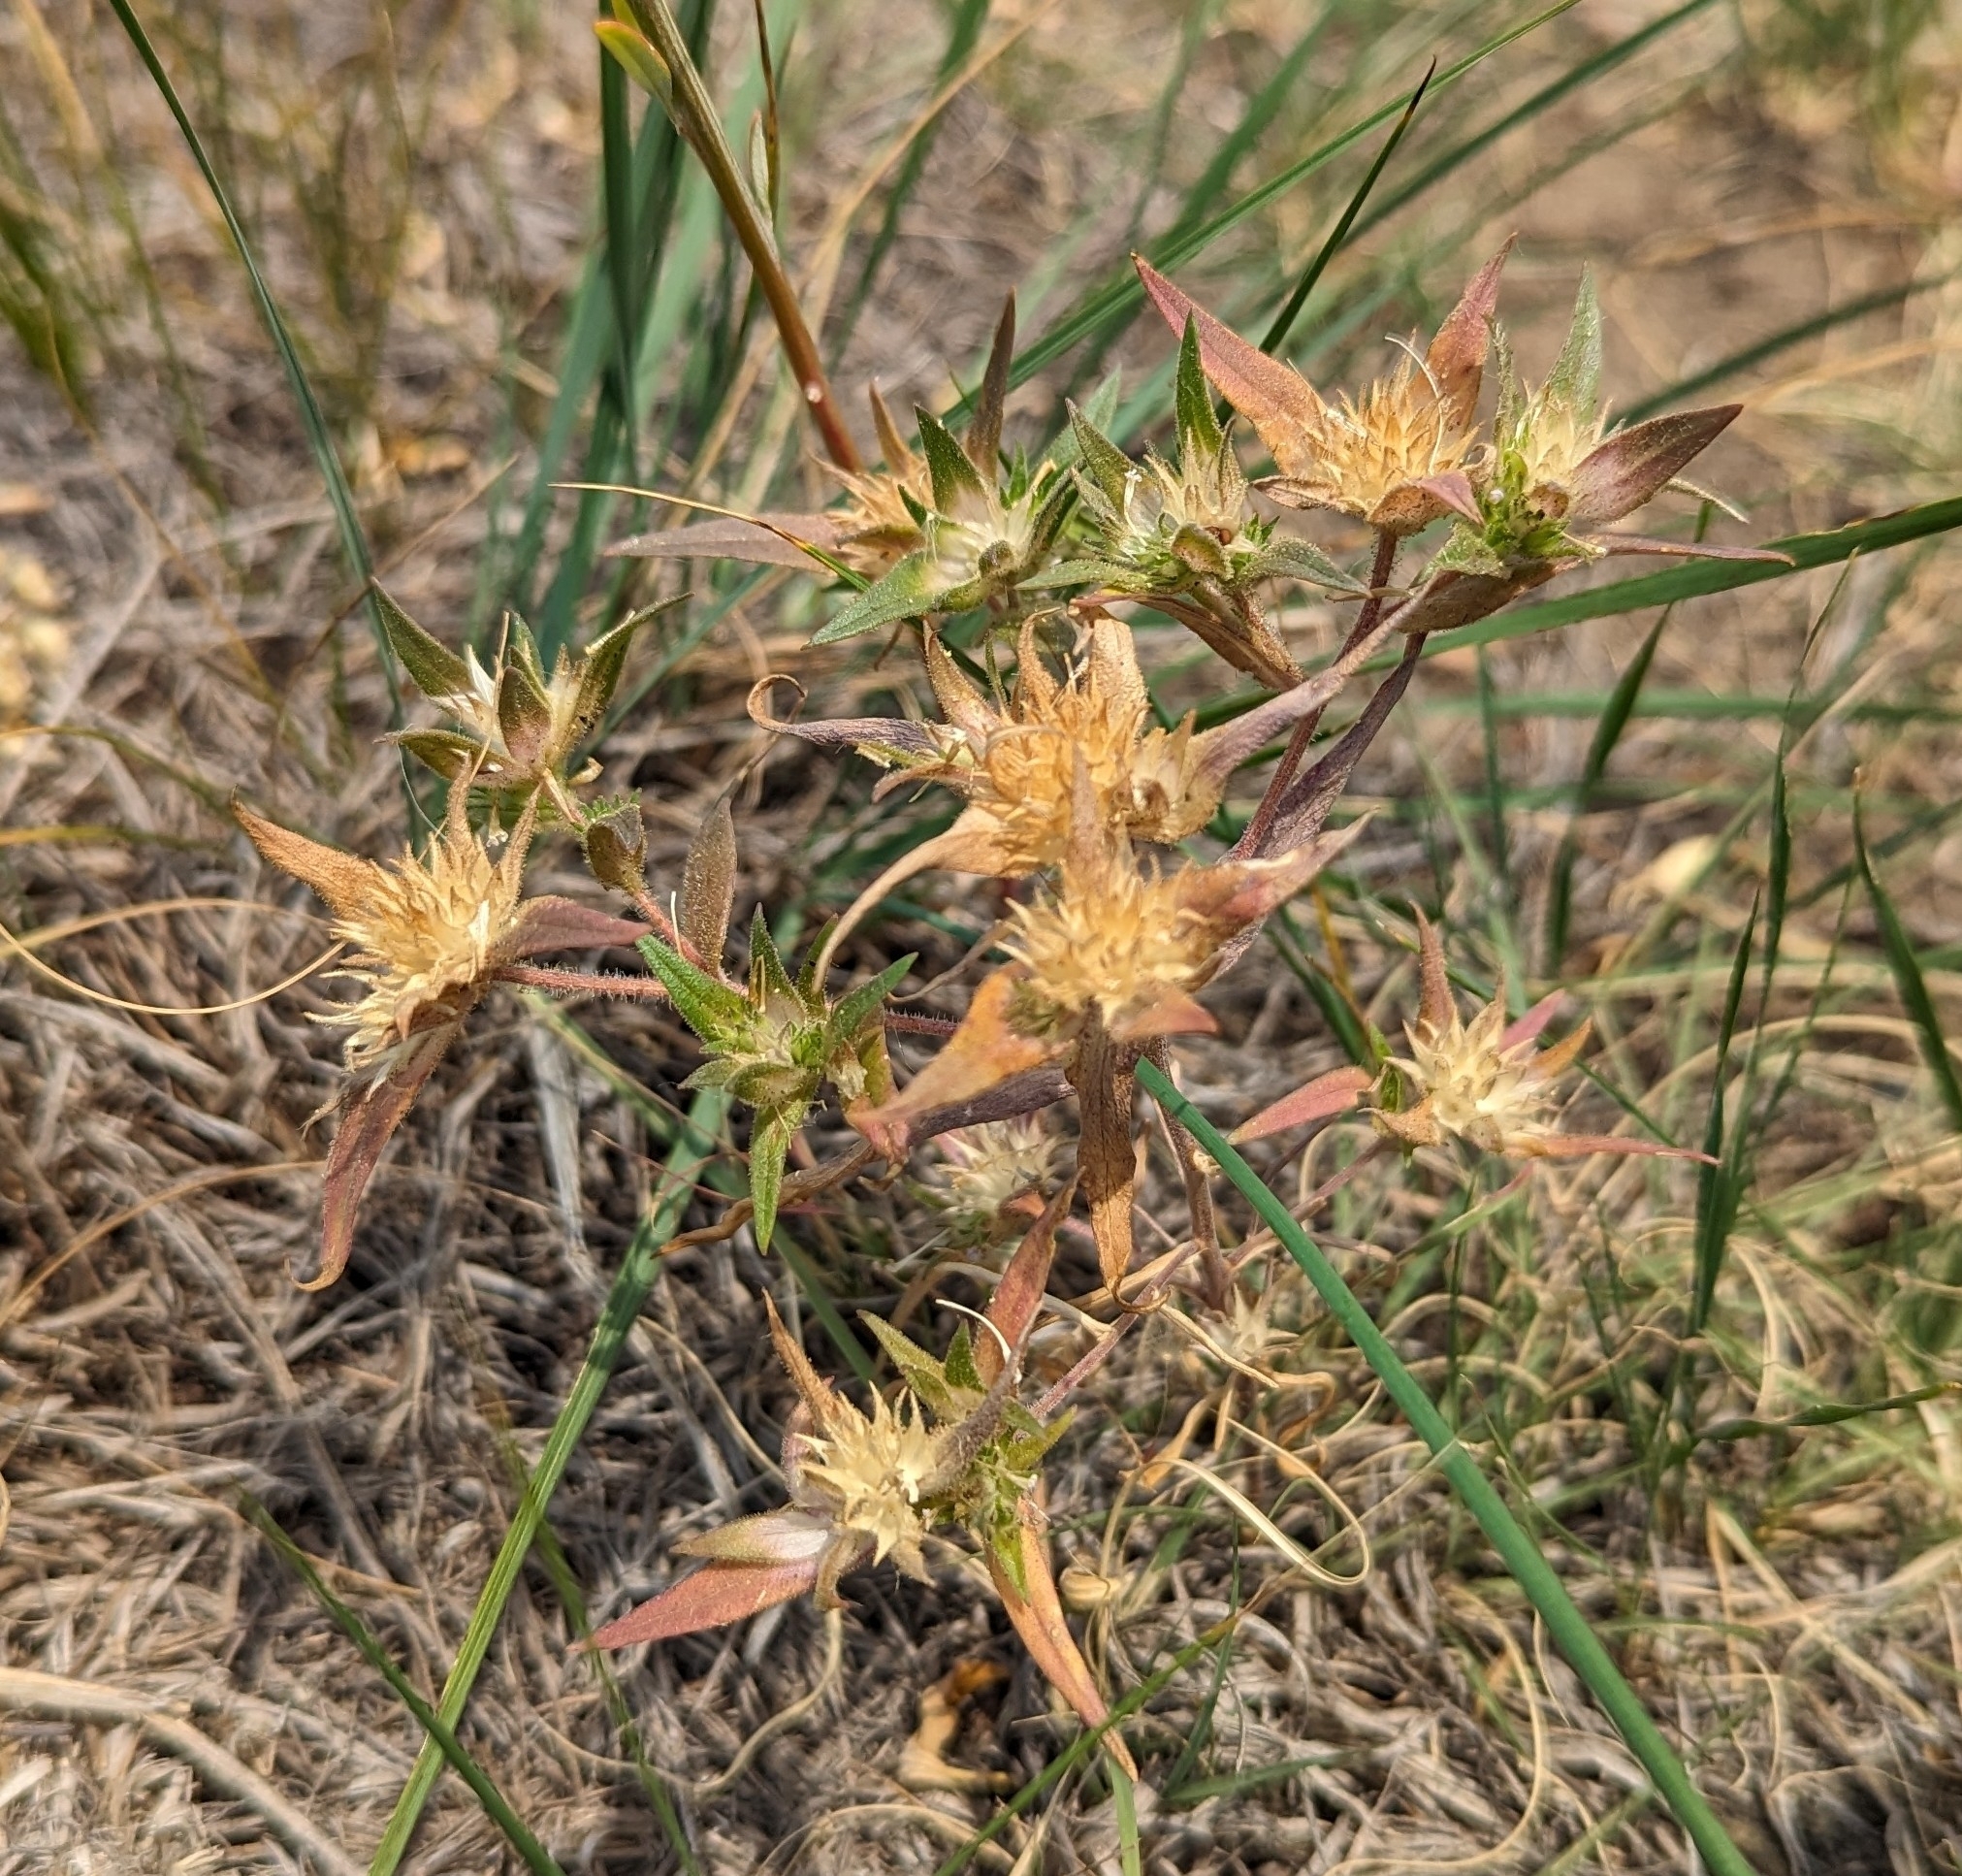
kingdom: Plantae
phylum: Tracheophyta
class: Magnoliopsida
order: Ericales
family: Polemoniaceae
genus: Collomia
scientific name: Collomia linearis
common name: Tiny trumpet
